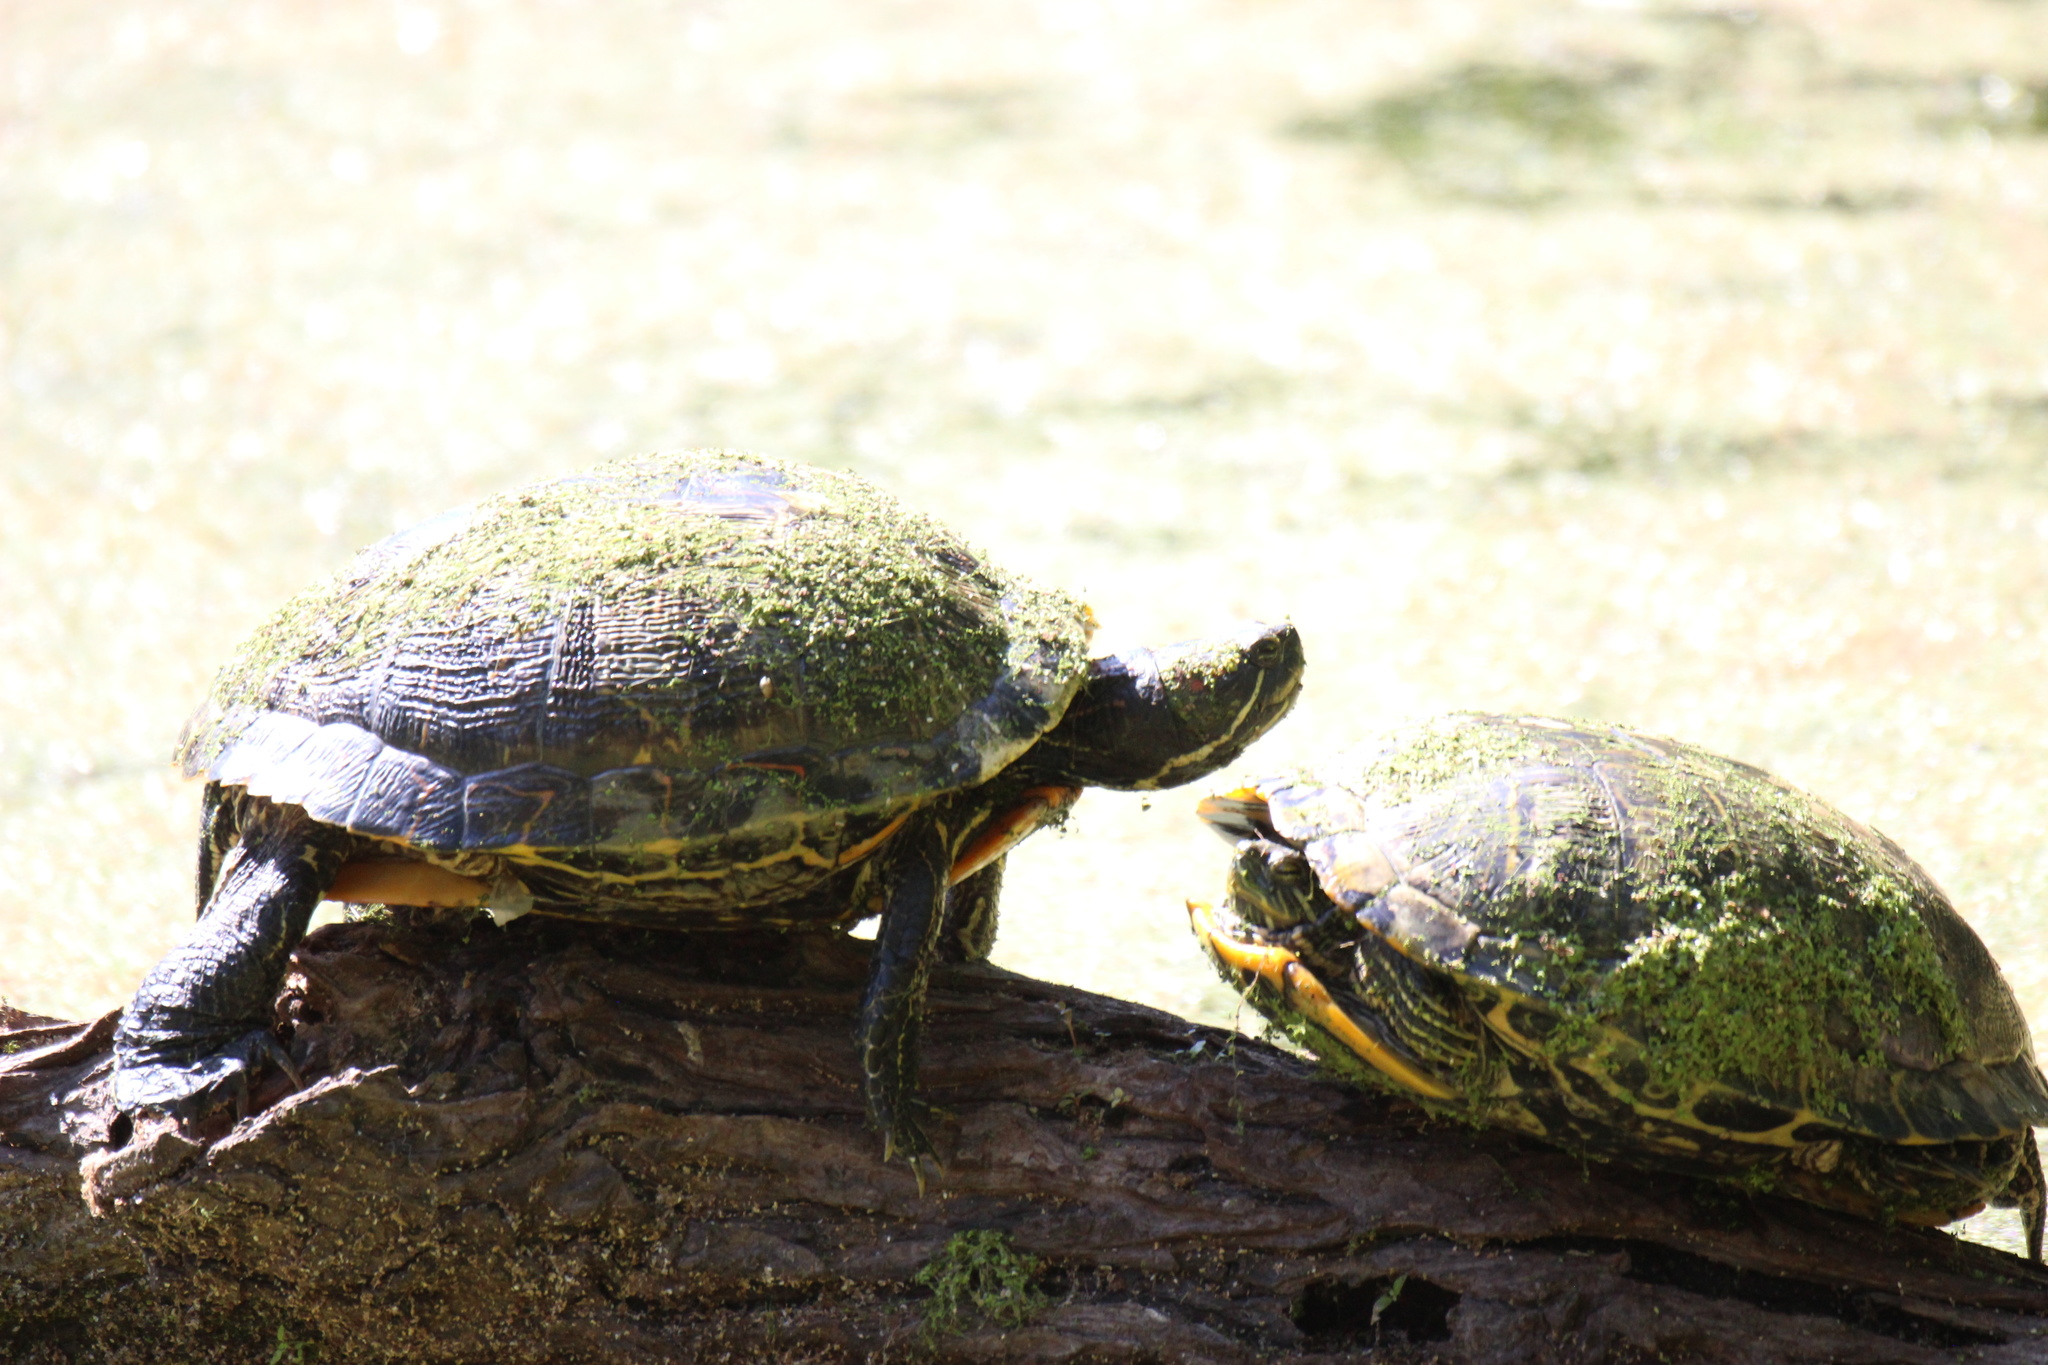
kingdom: Animalia
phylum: Chordata
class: Testudines
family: Emydidae
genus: Trachemys
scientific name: Trachemys scripta
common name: Slider
